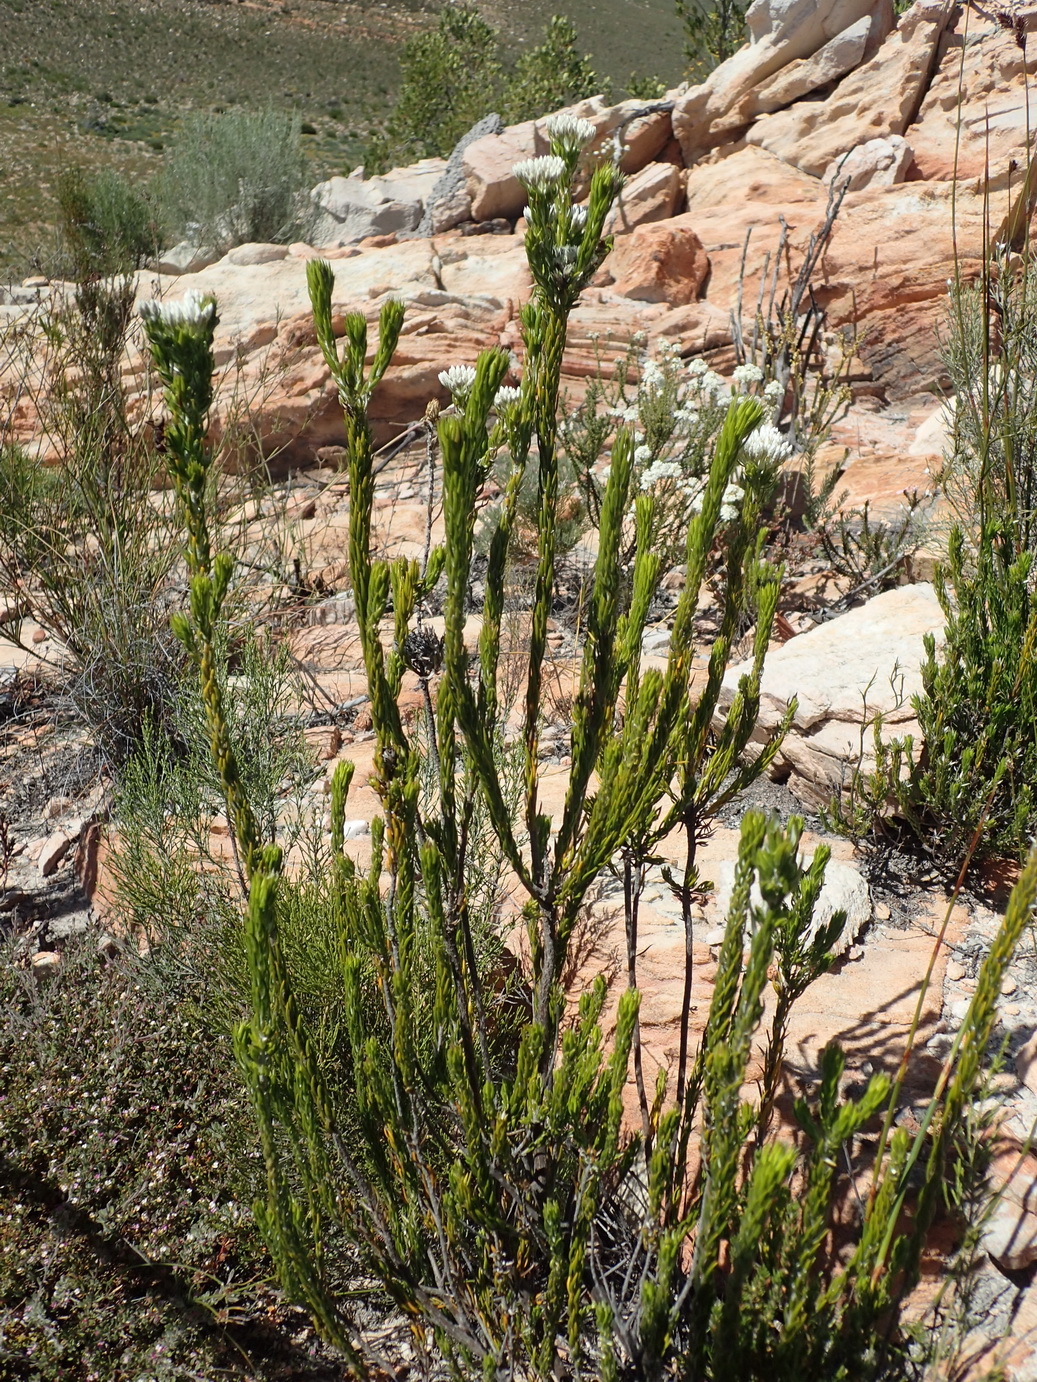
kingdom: Plantae
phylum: Tracheophyta
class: Magnoliopsida
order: Asterales
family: Asteraceae
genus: Metalasia
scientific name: Metalasia pallida
